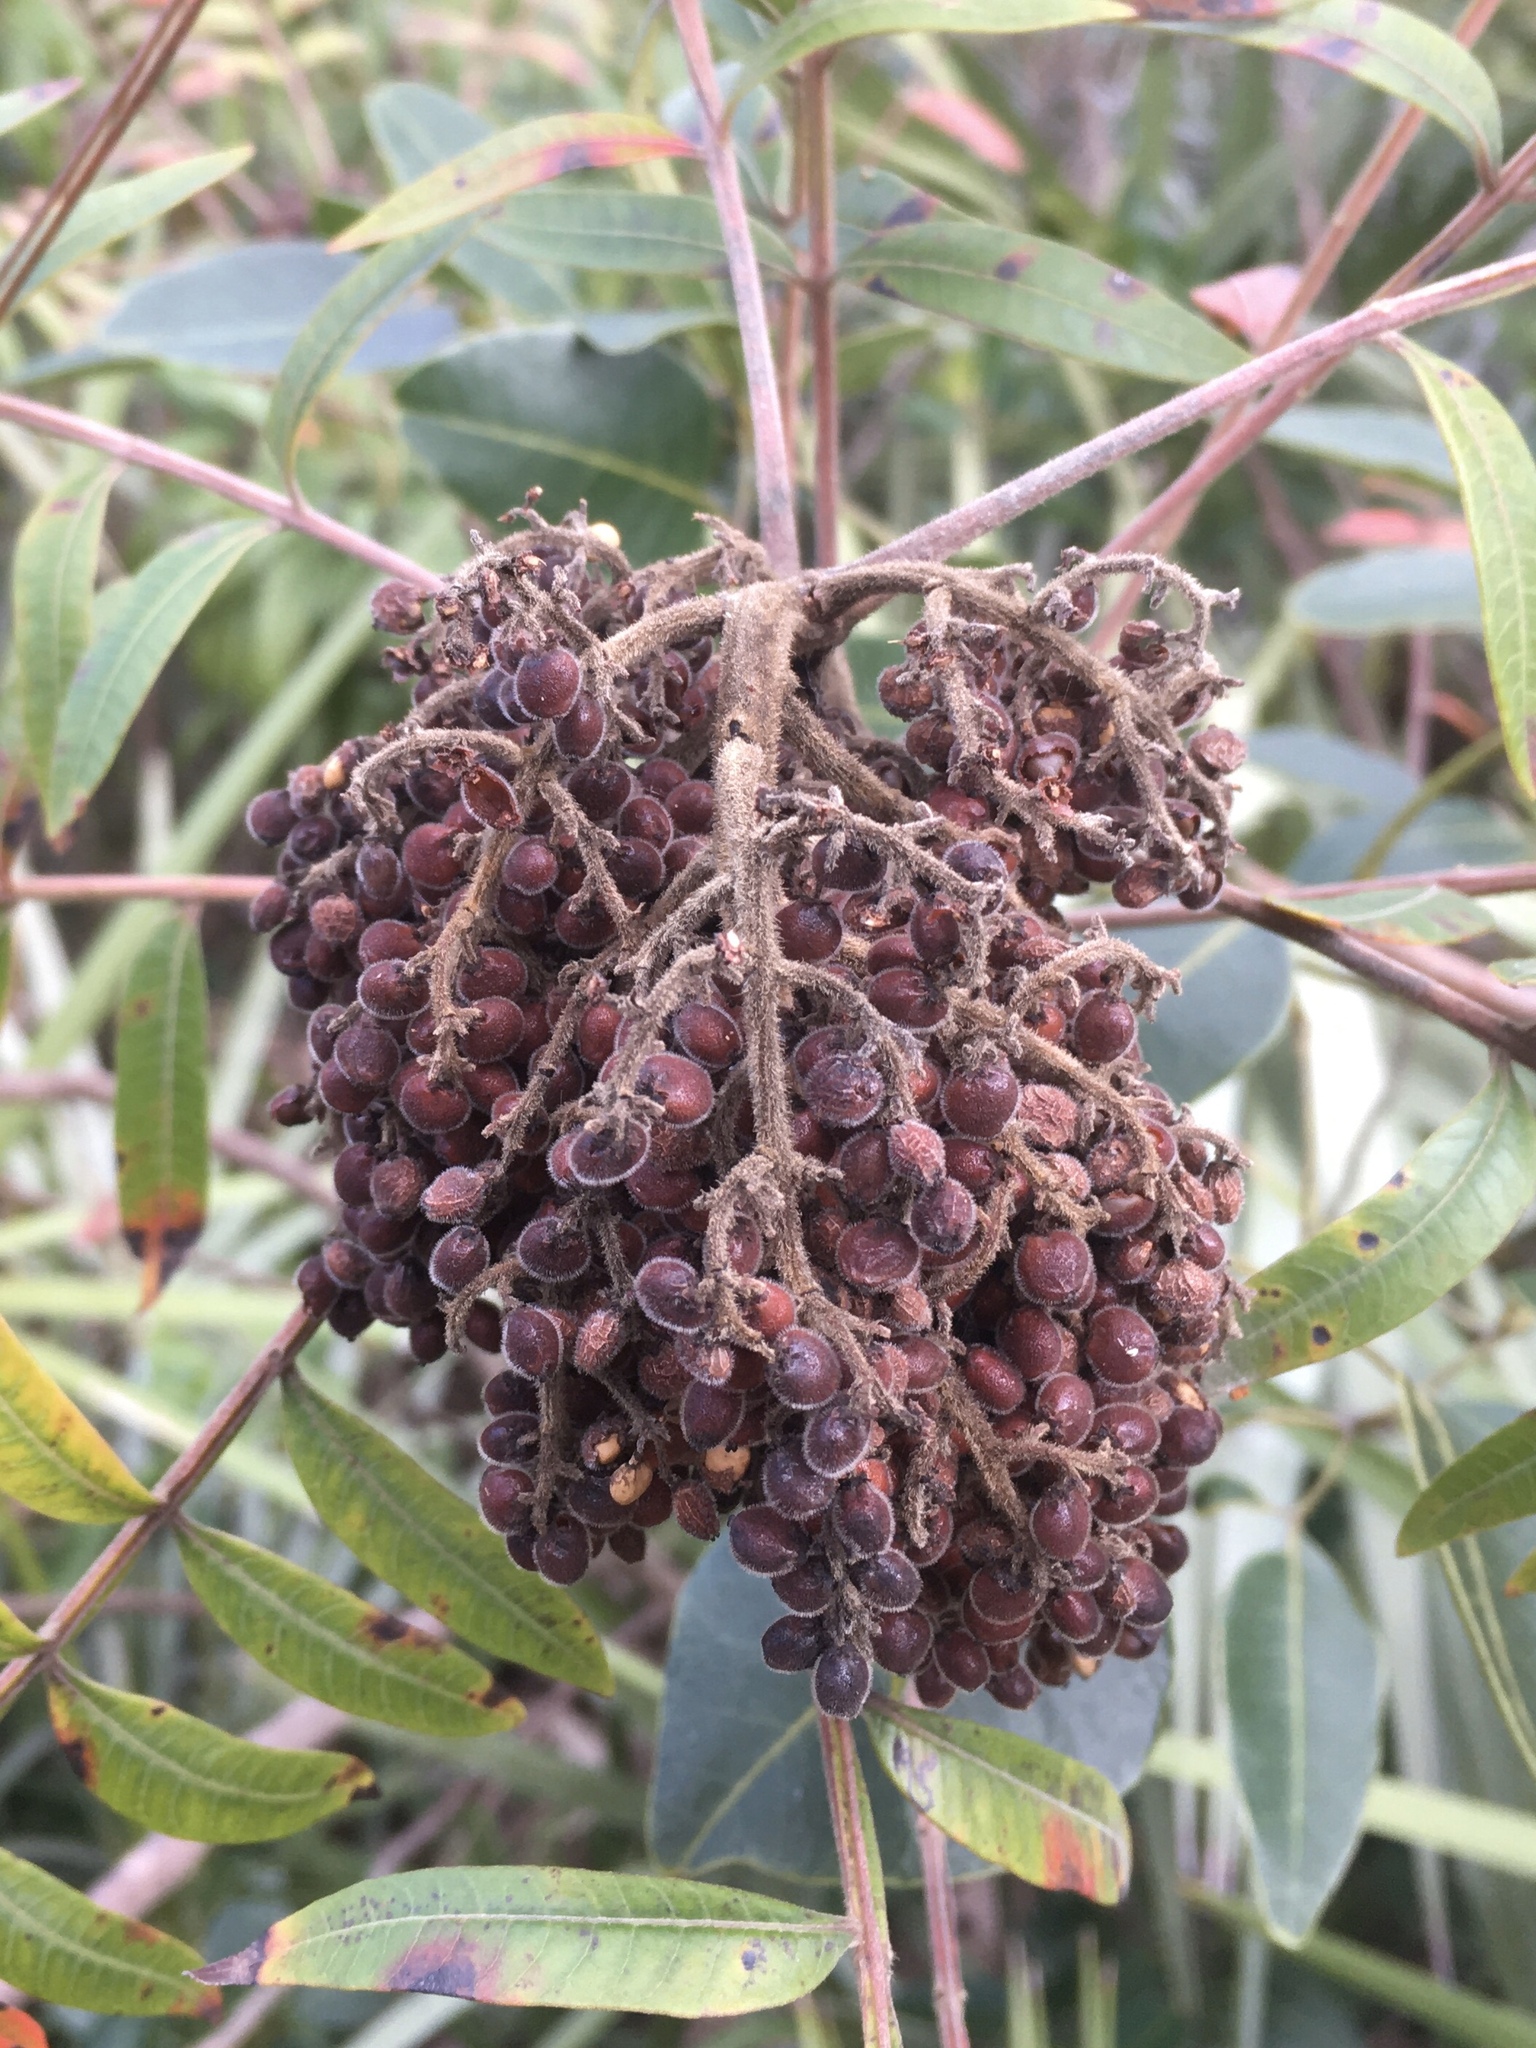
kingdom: Plantae
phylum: Tracheophyta
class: Magnoliopsida
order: Sapindales
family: Anacardiaceae
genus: Rhus
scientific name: Rhus copallina
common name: Shining sumac
